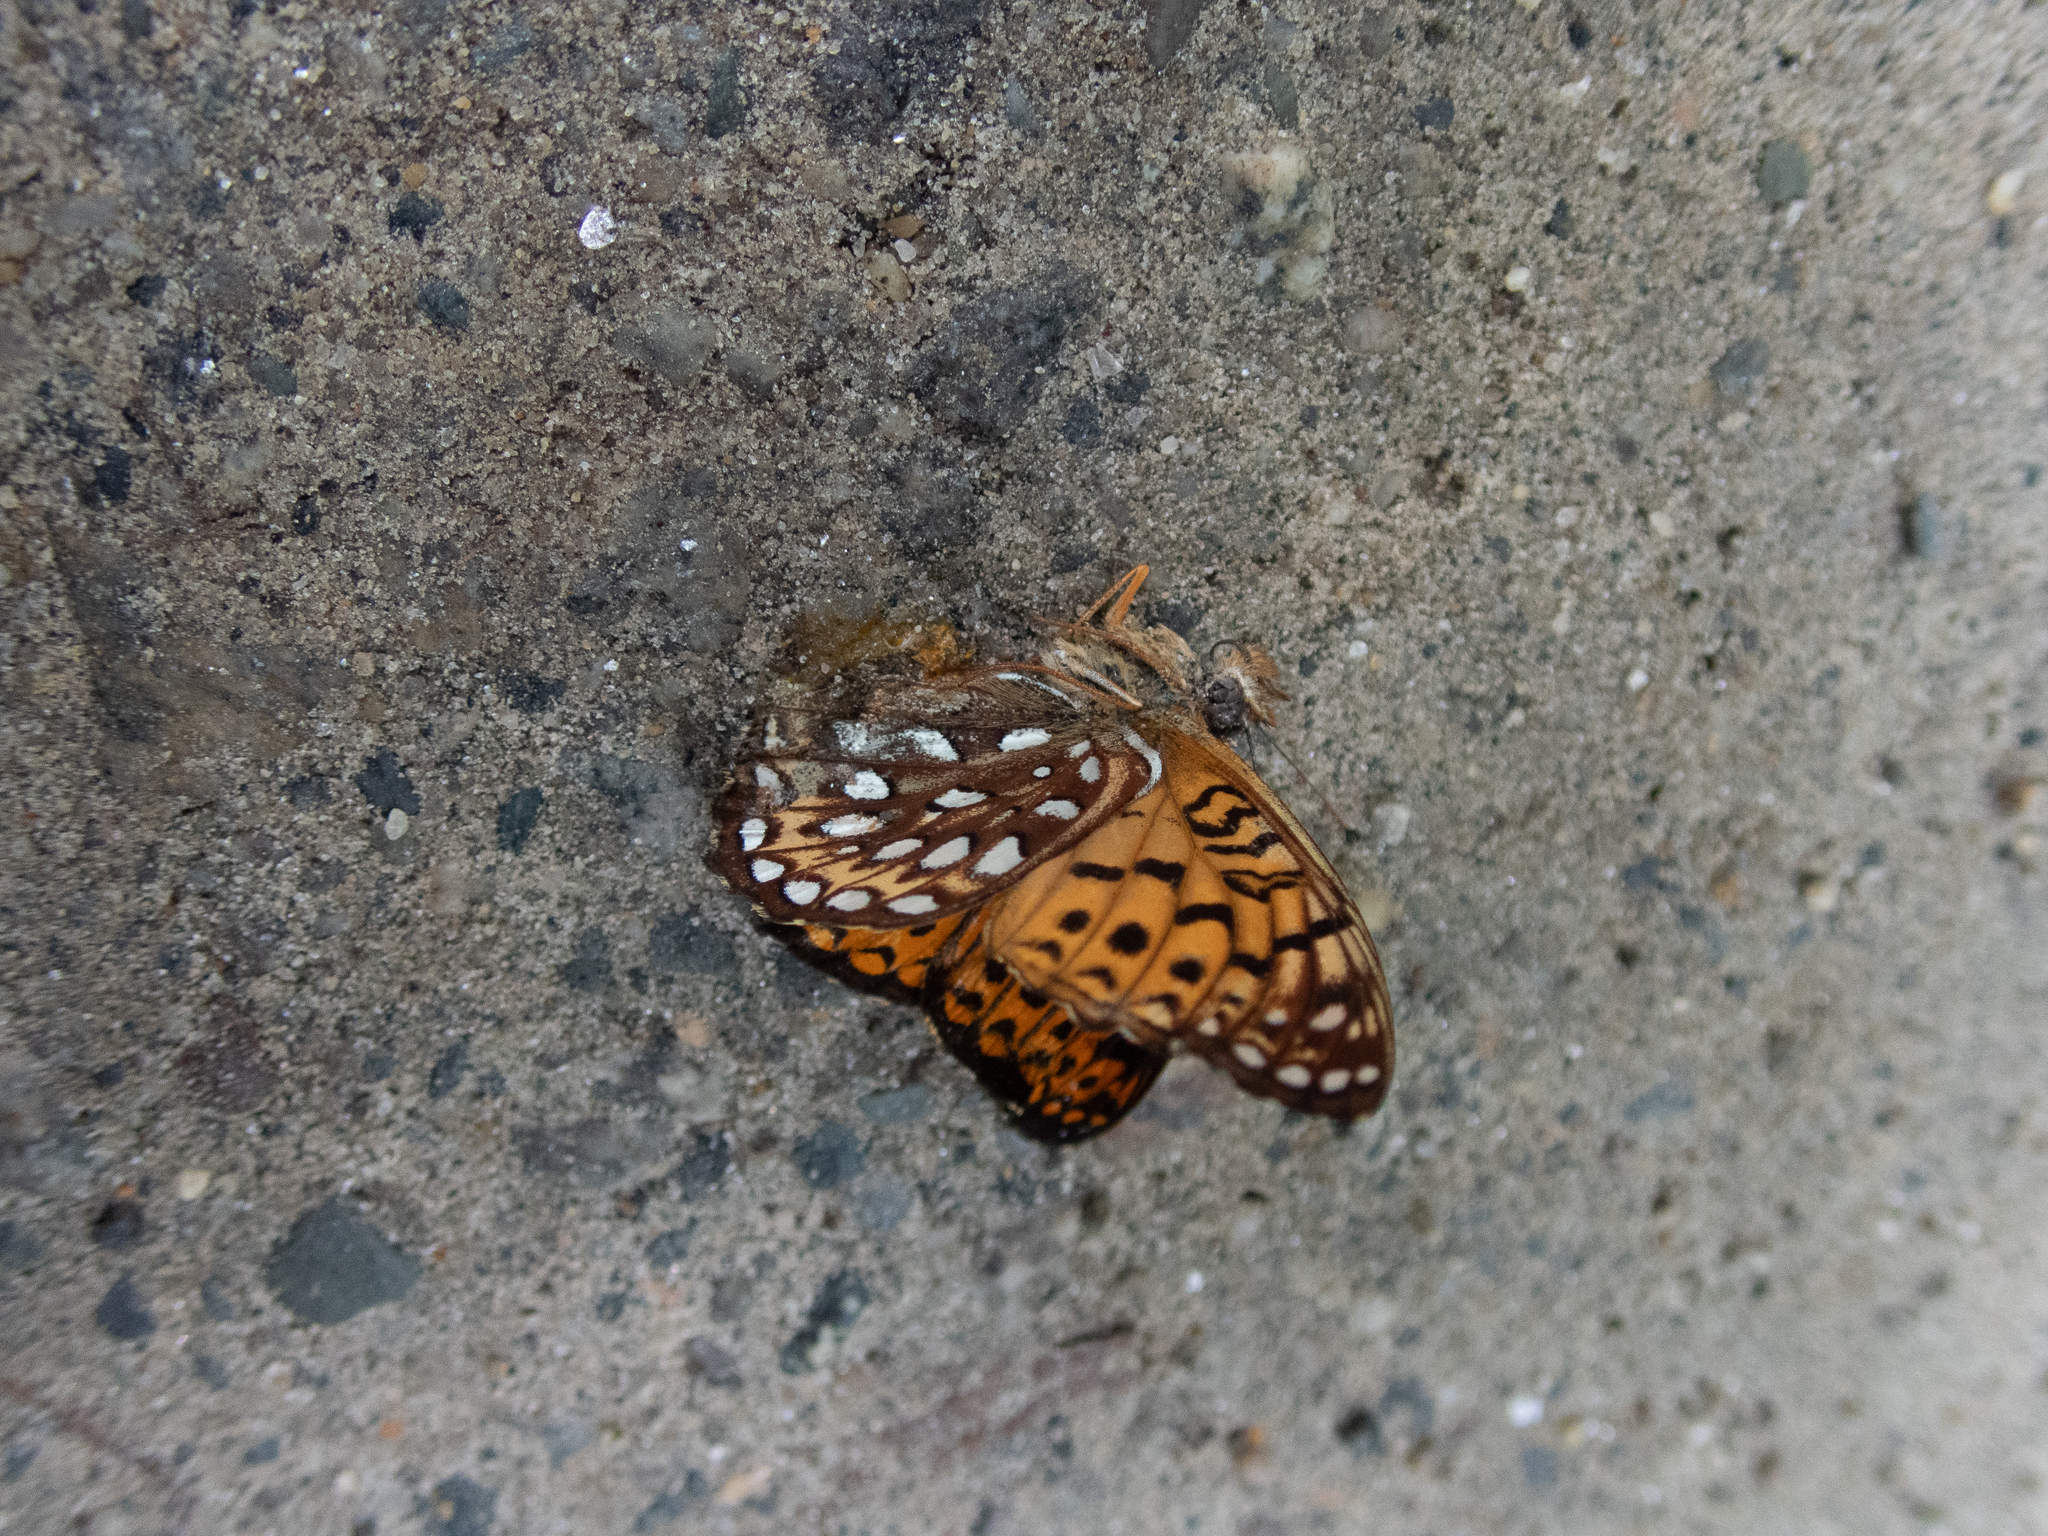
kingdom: Animalia
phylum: Arthropoda
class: Insecta
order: Lepidoptera
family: Nymphalidae
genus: Speyeria
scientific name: Speyeria atlantis
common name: Atlantis fritillary
